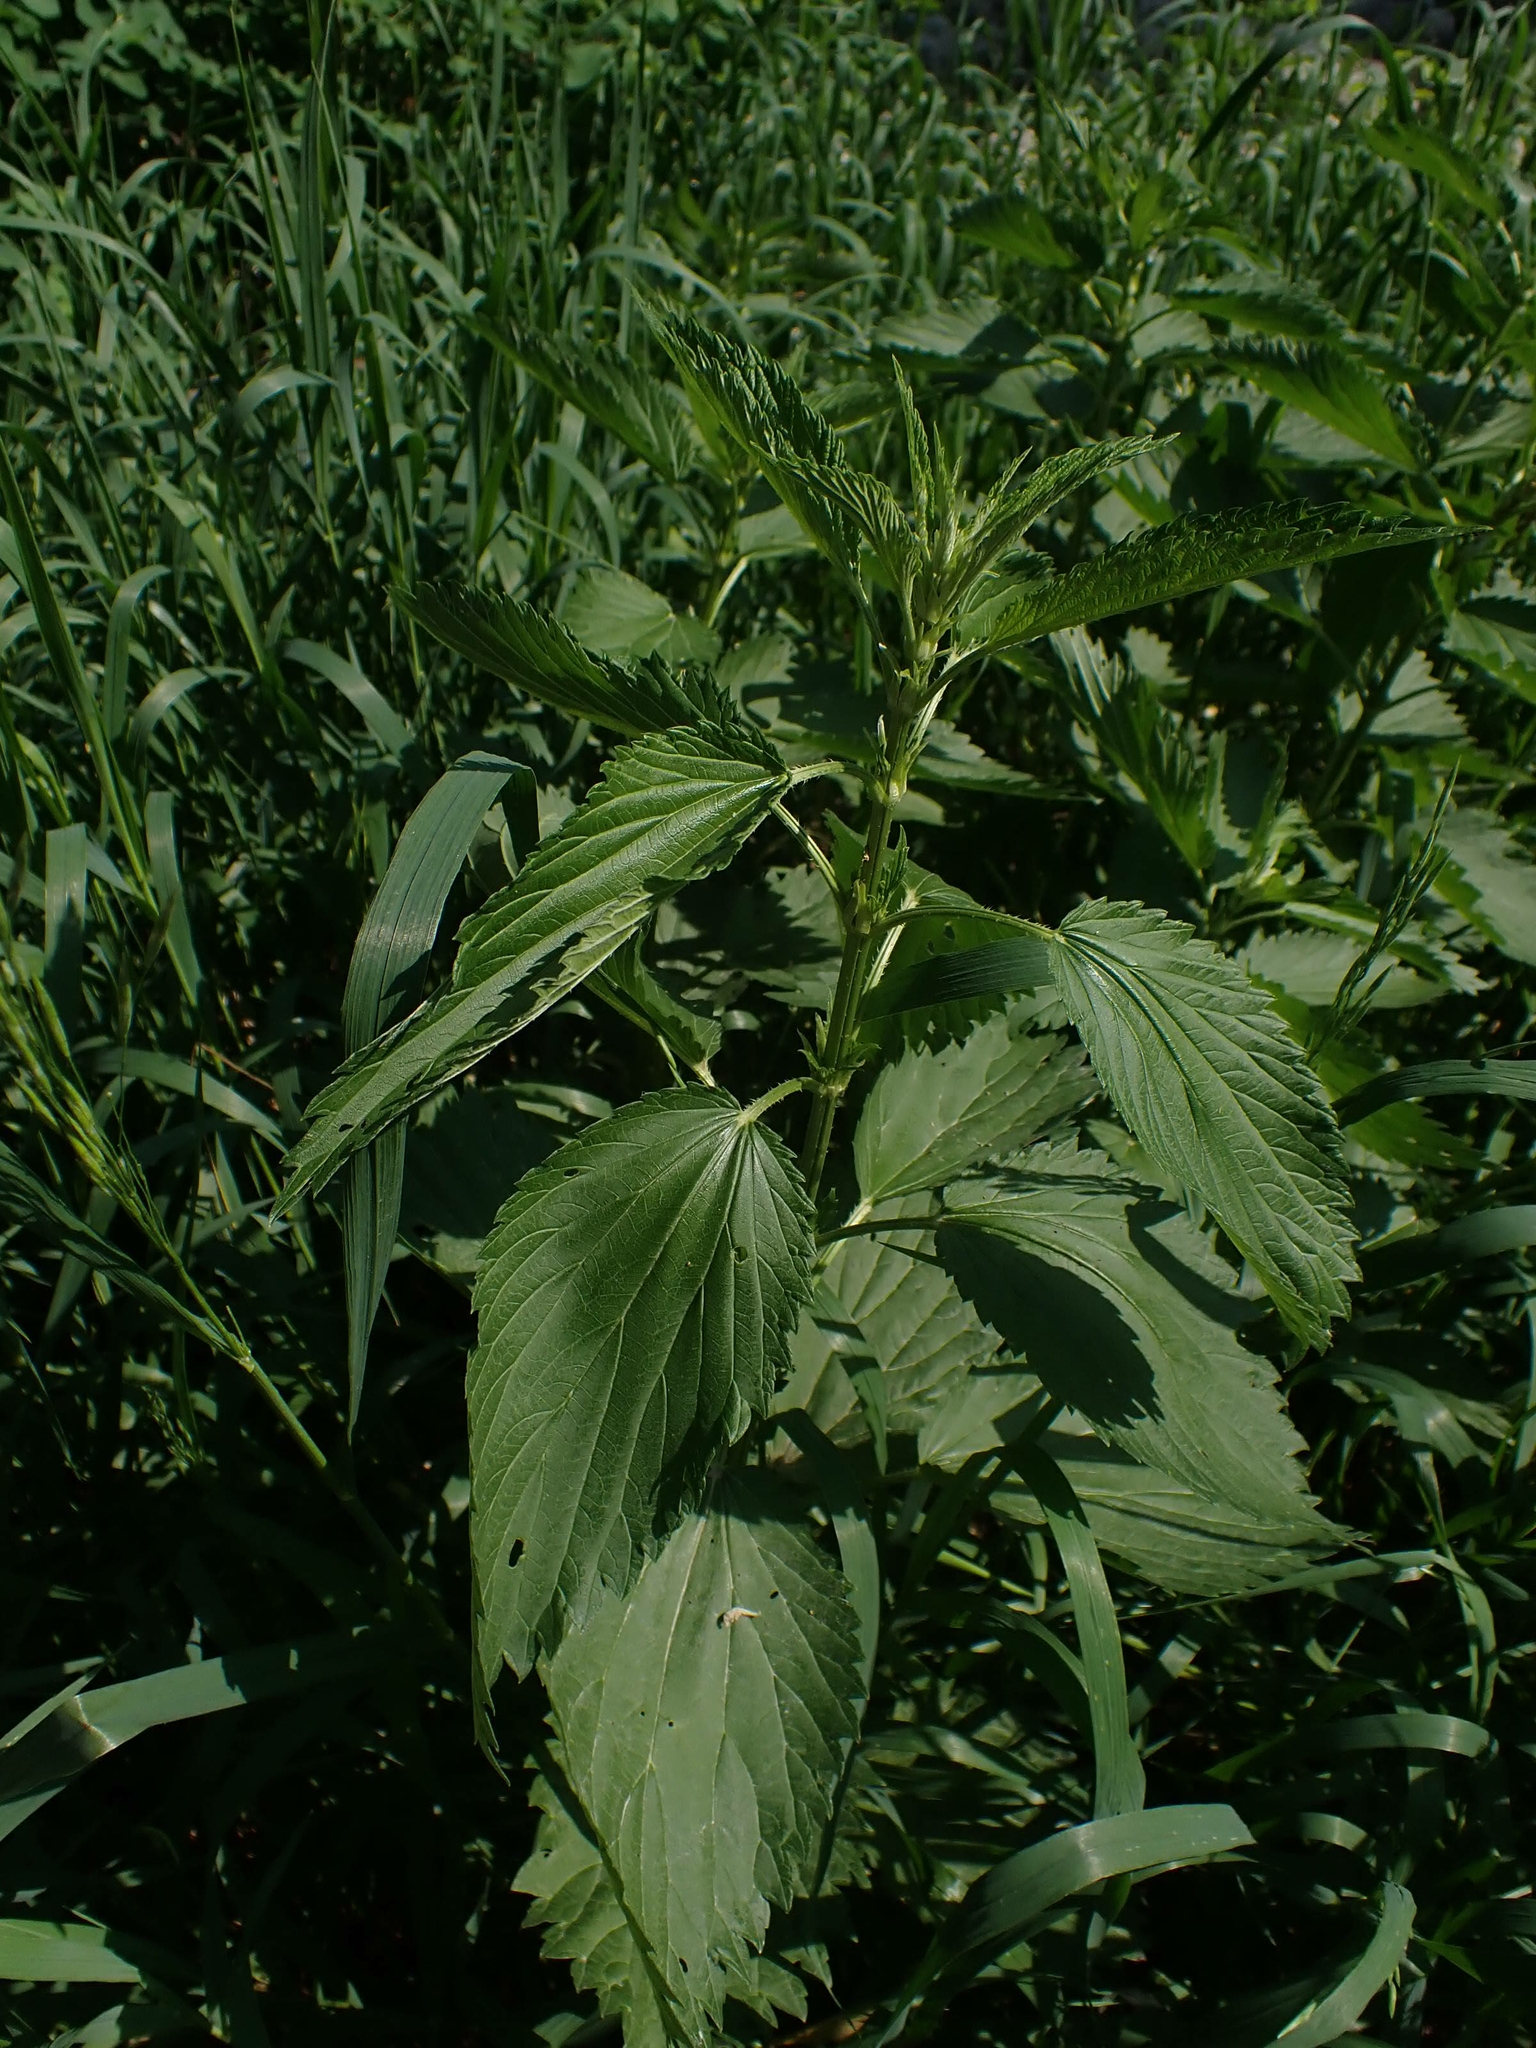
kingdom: Plantae
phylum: Tracheophyta
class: Magnoliopsida
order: Rosales
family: Urticaceae
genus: Urtica
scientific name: Urtica gracilis
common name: Slender stinging nettle
